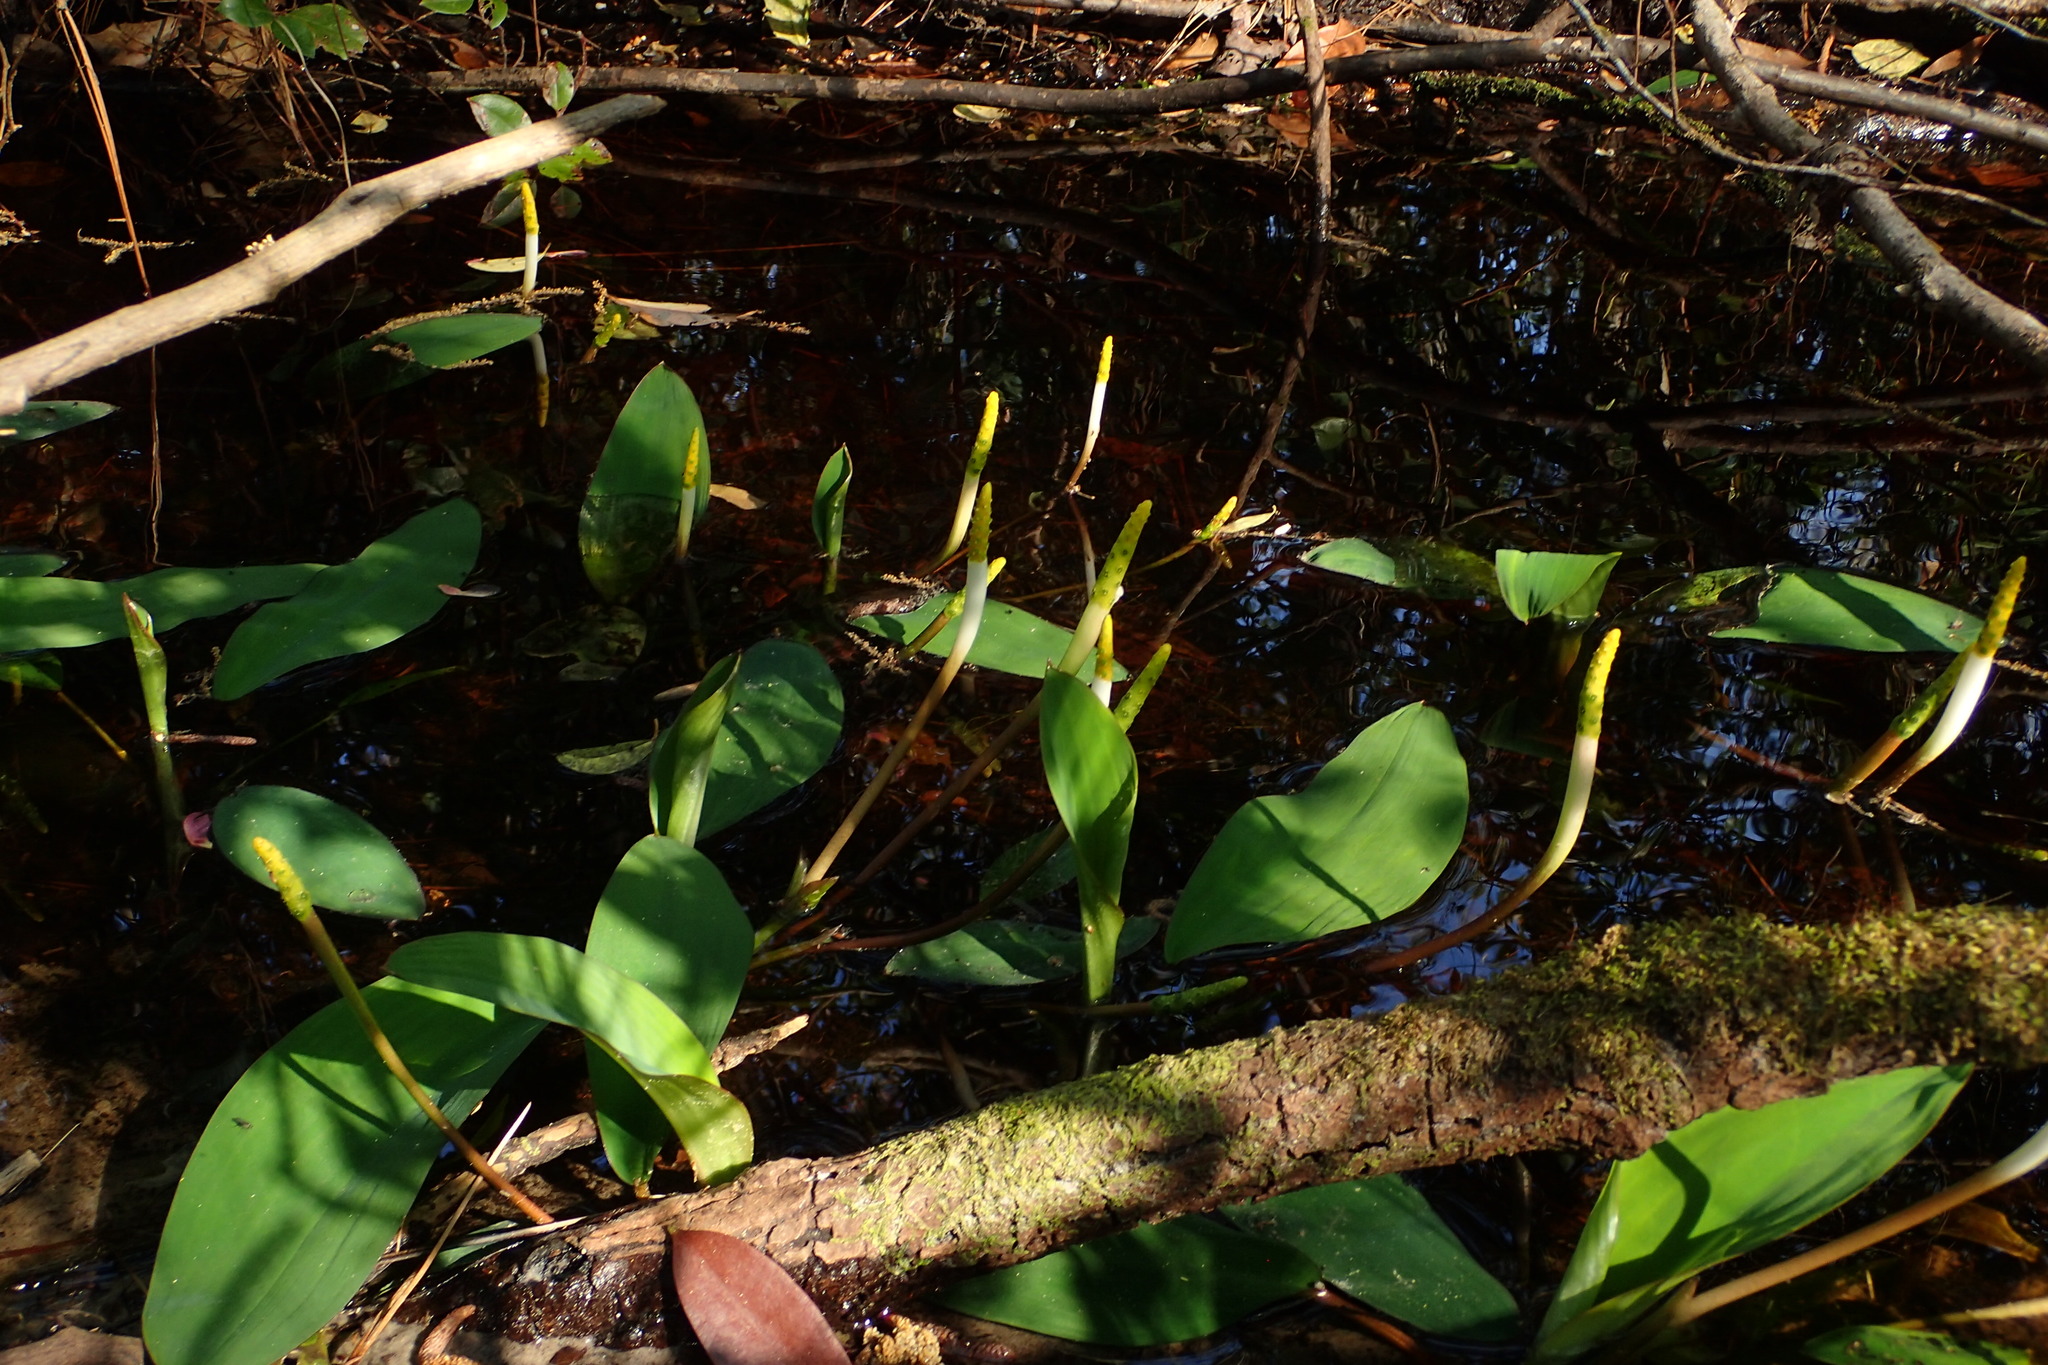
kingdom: Plantae
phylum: Tracheophyta
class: Liliopsida
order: Alismatales
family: Araceae
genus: Orontium
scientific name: Orontium aquaticum
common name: Golden-club
